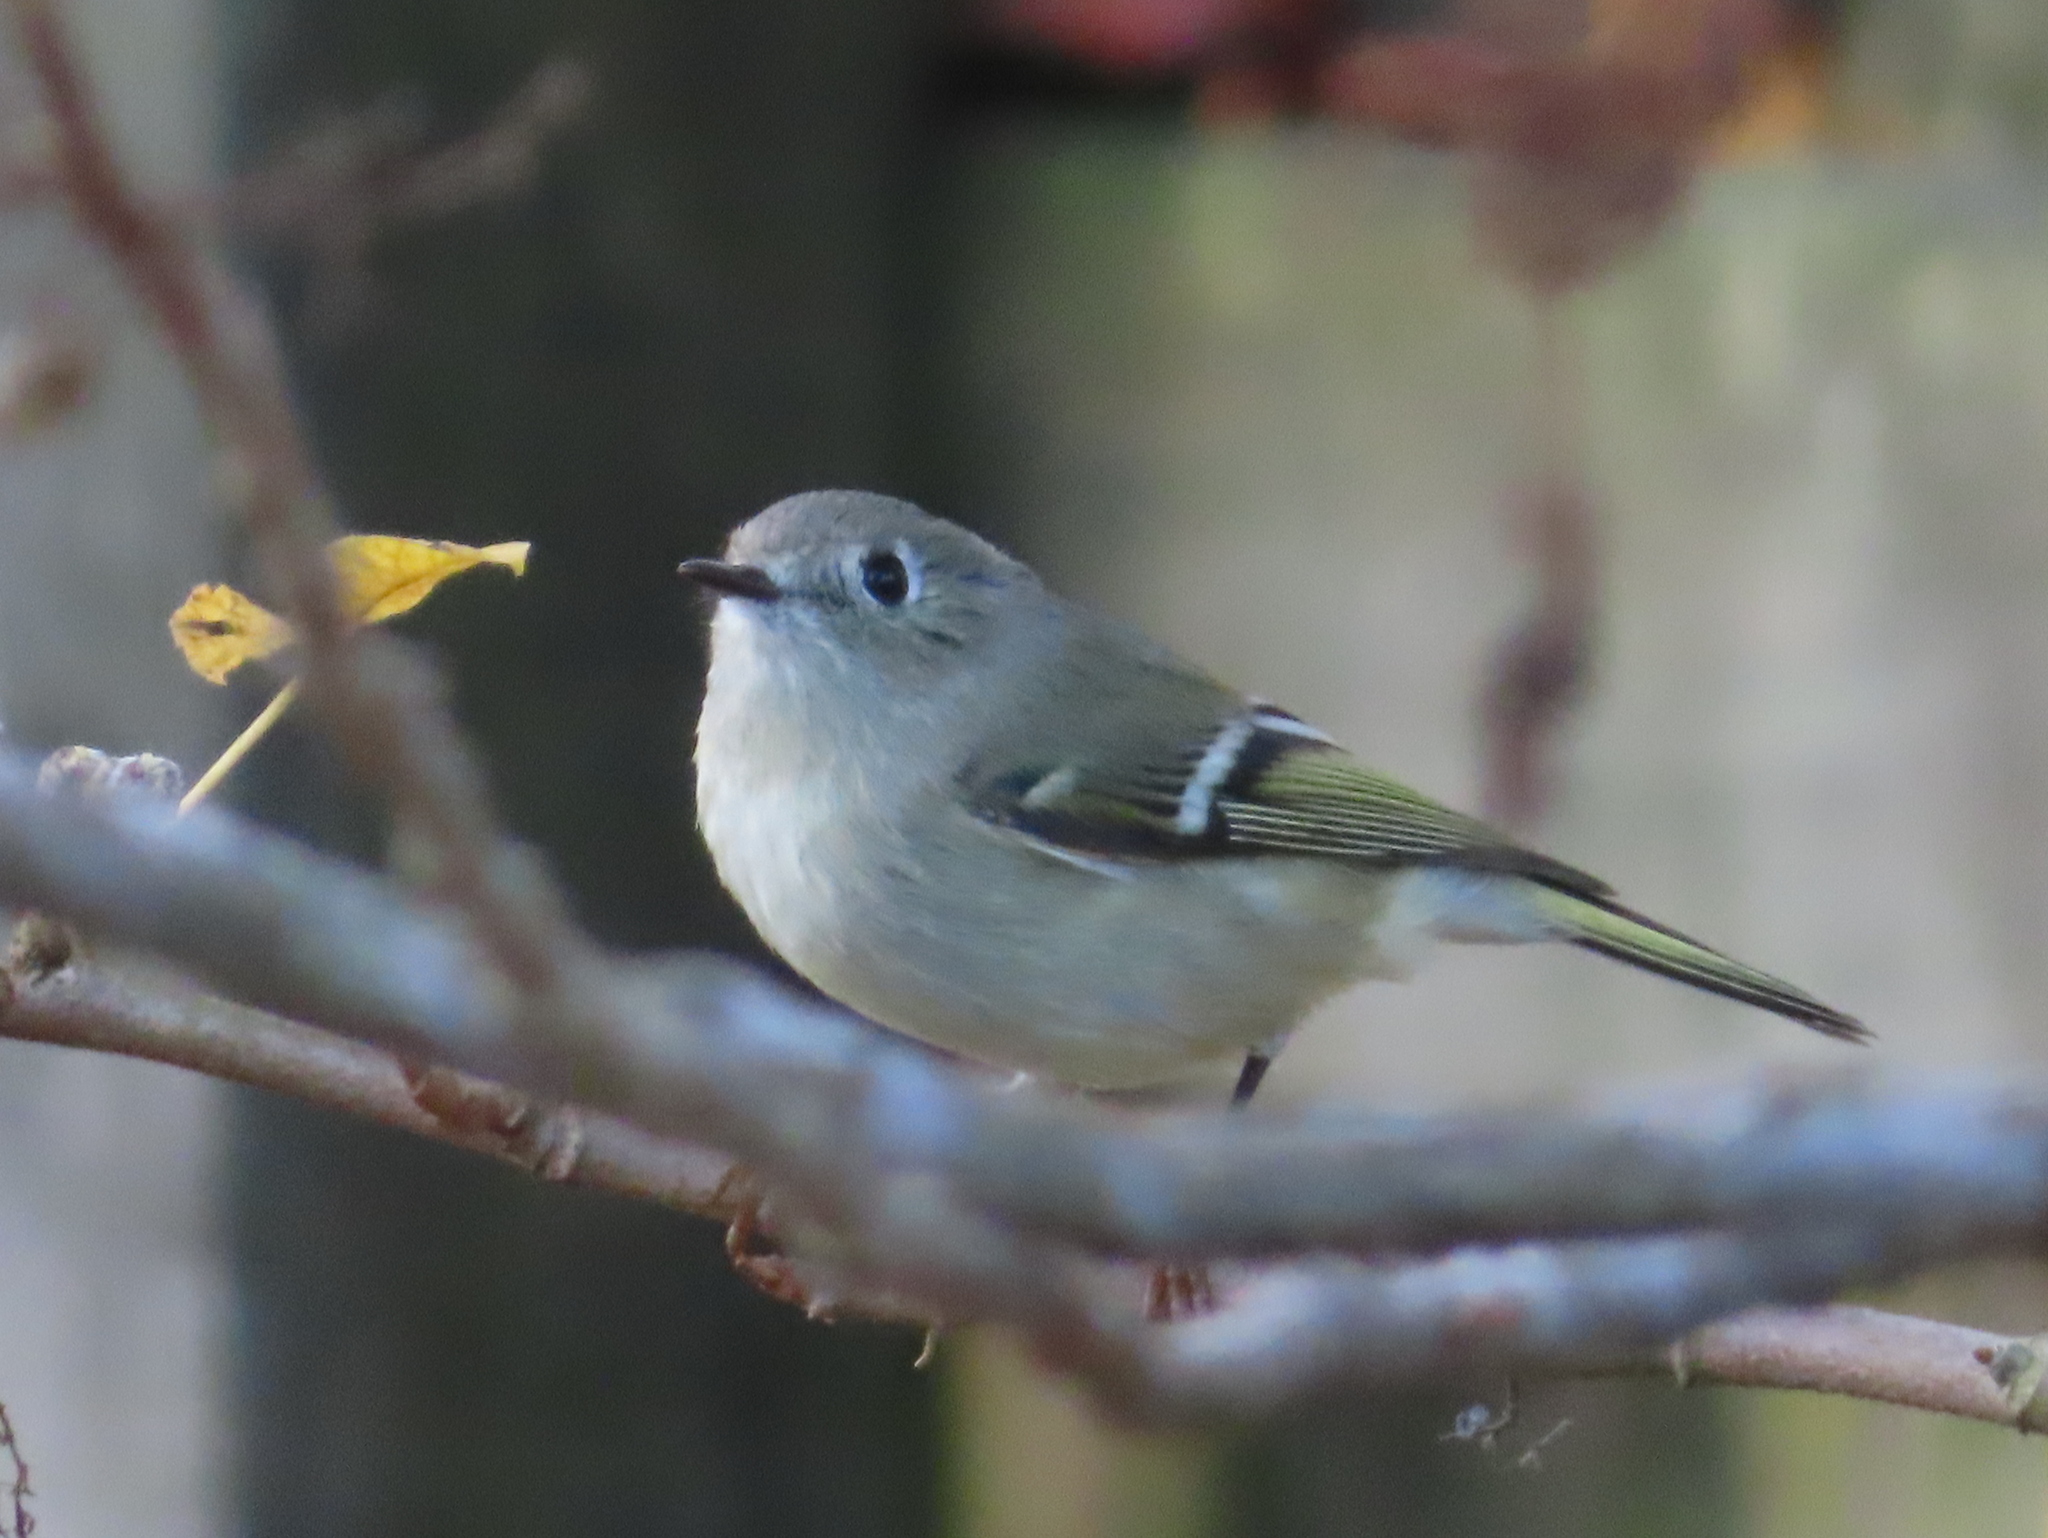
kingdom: Animalia
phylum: Chordata
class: Aves
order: Passeriformes
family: Regulidae
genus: Regulus
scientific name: Regulus calendula
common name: Ruby-crowned kinglet
